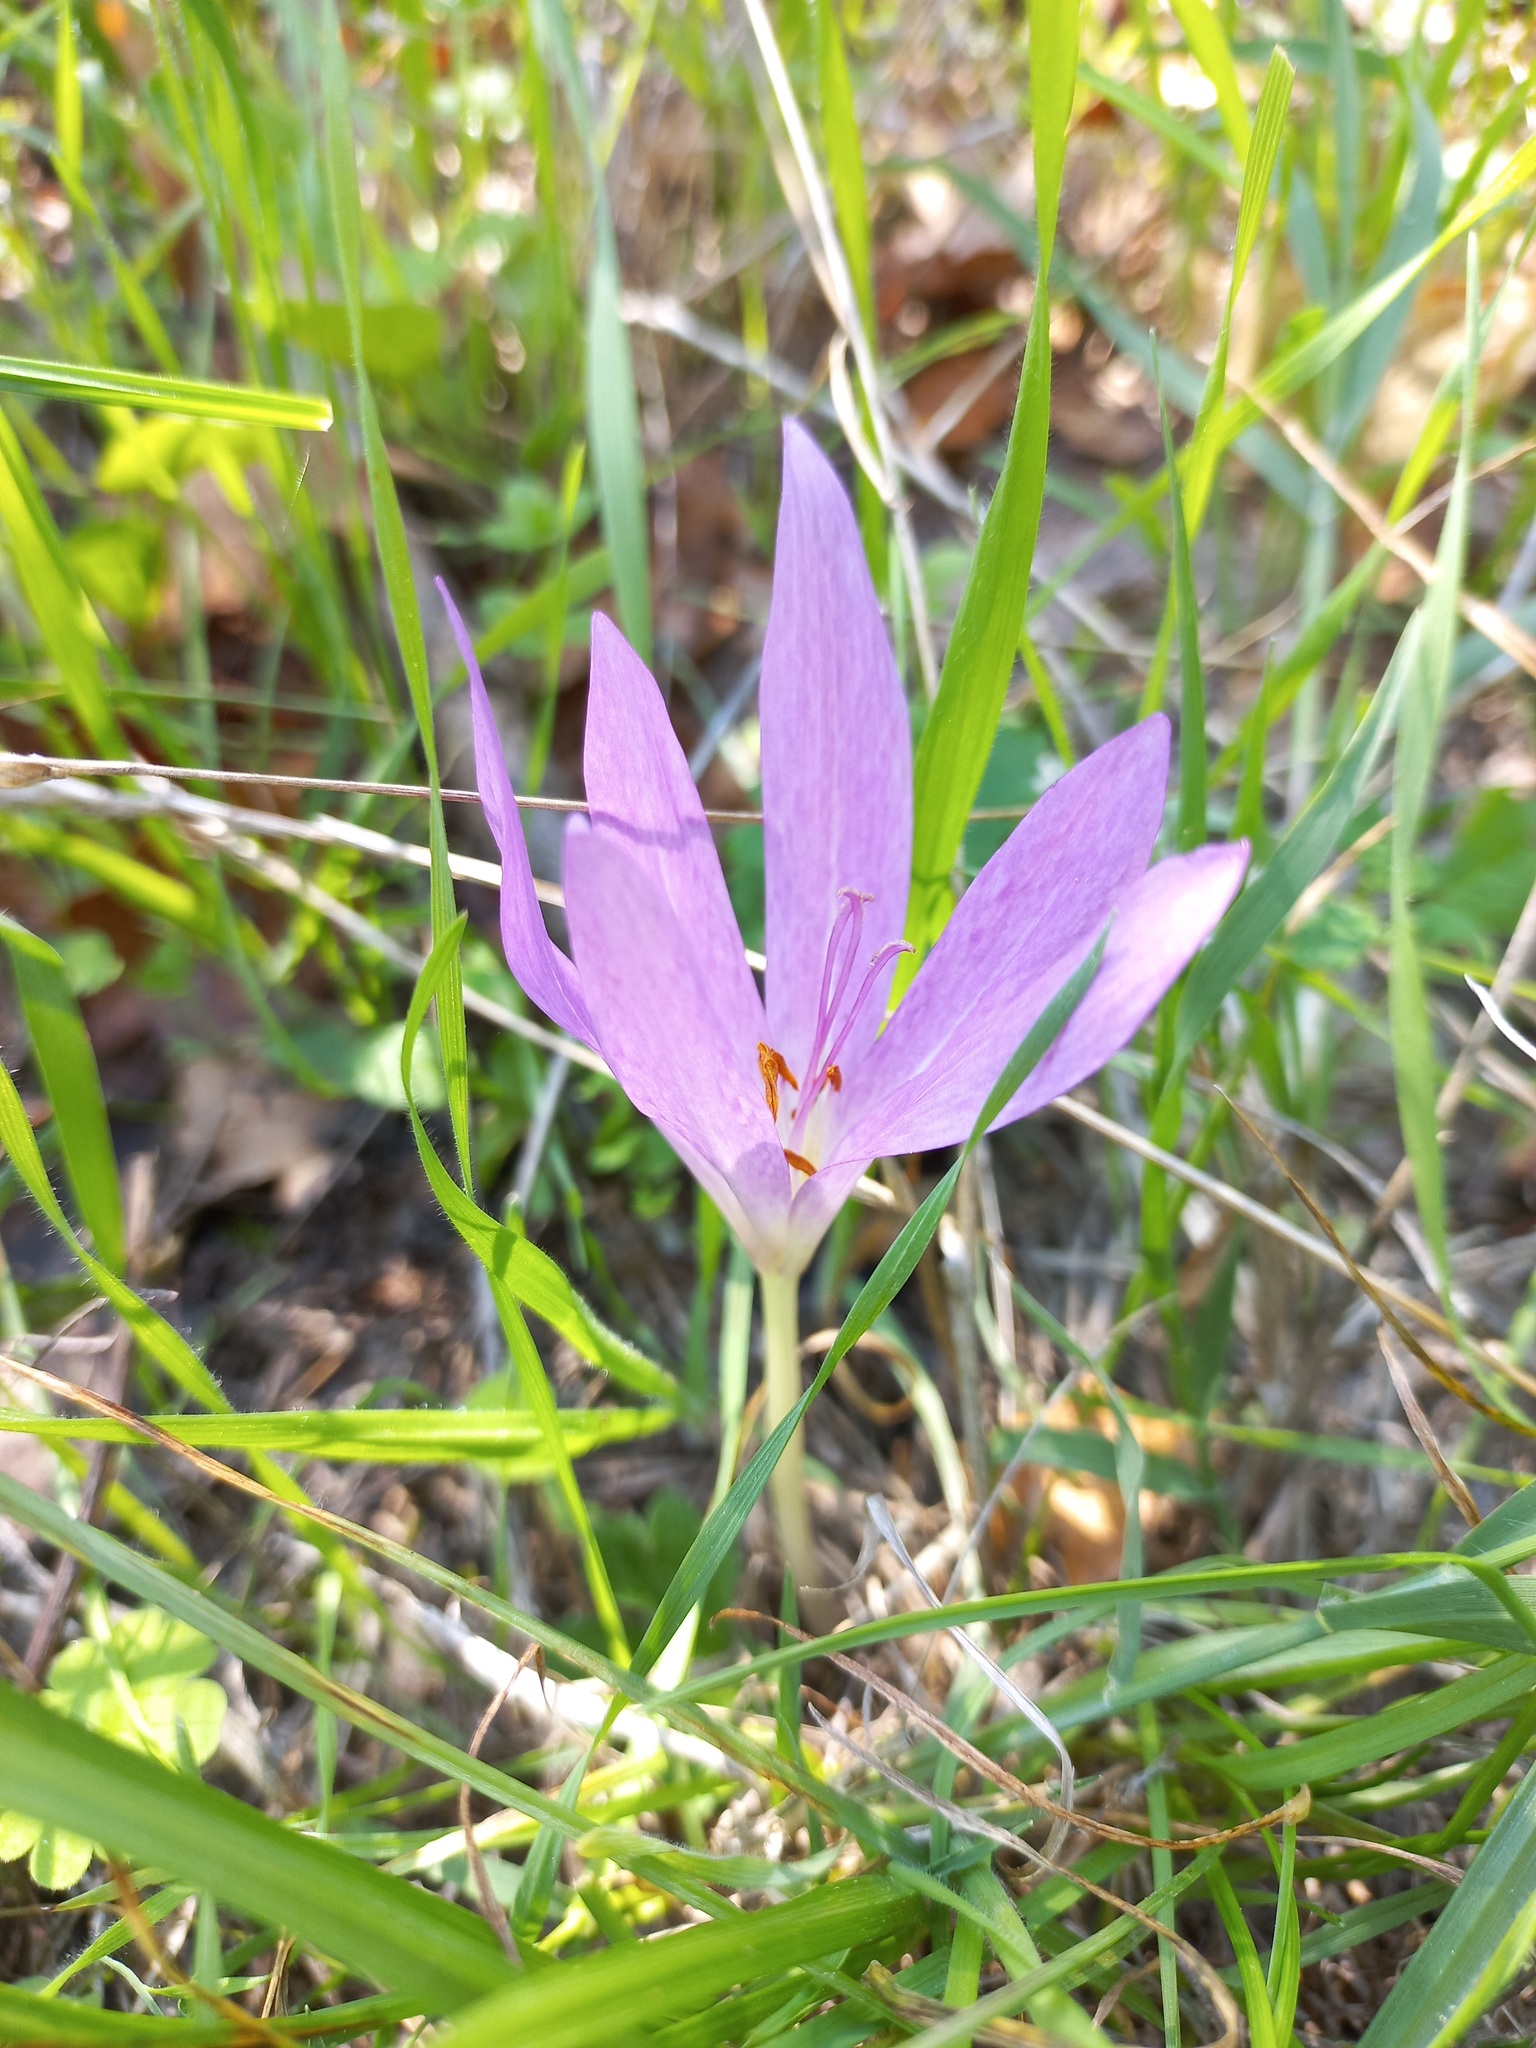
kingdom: Plantae
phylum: Tracheophyta
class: Liliopsida
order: Liliales
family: Colchicaceae
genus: Colchicum
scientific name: Colchicum lusitanum
